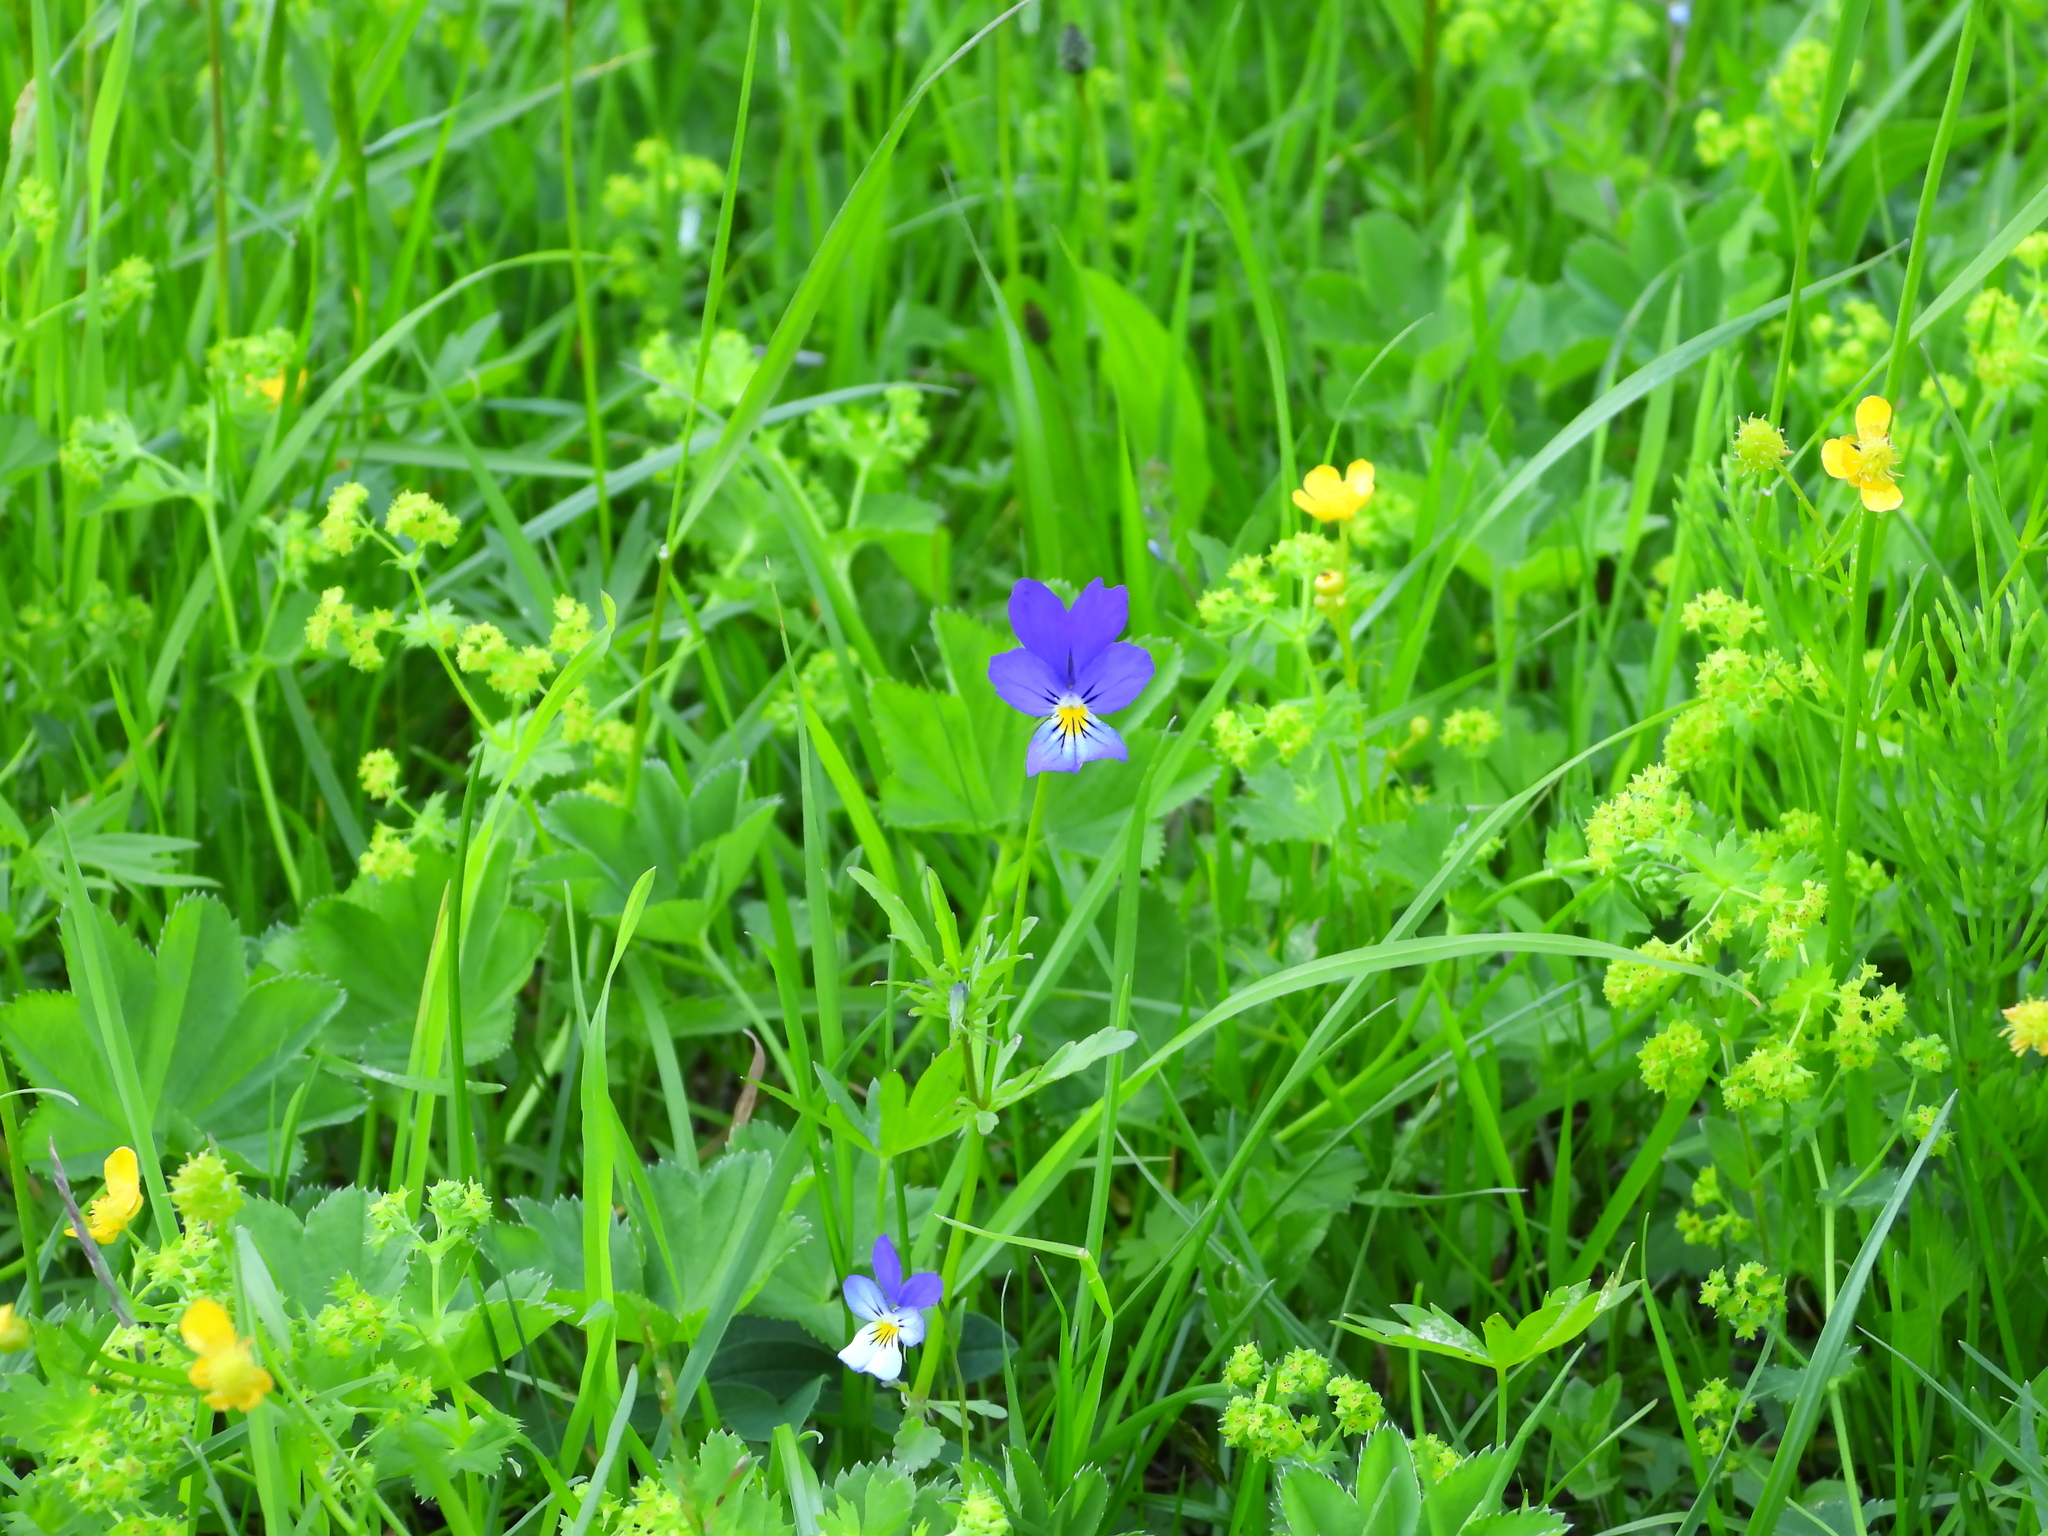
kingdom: Plantae
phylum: Tracheophyta
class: Magnoliopsida
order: Malpighiales
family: Violaceae
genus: Viola
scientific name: Viola tricolor
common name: Pansy
